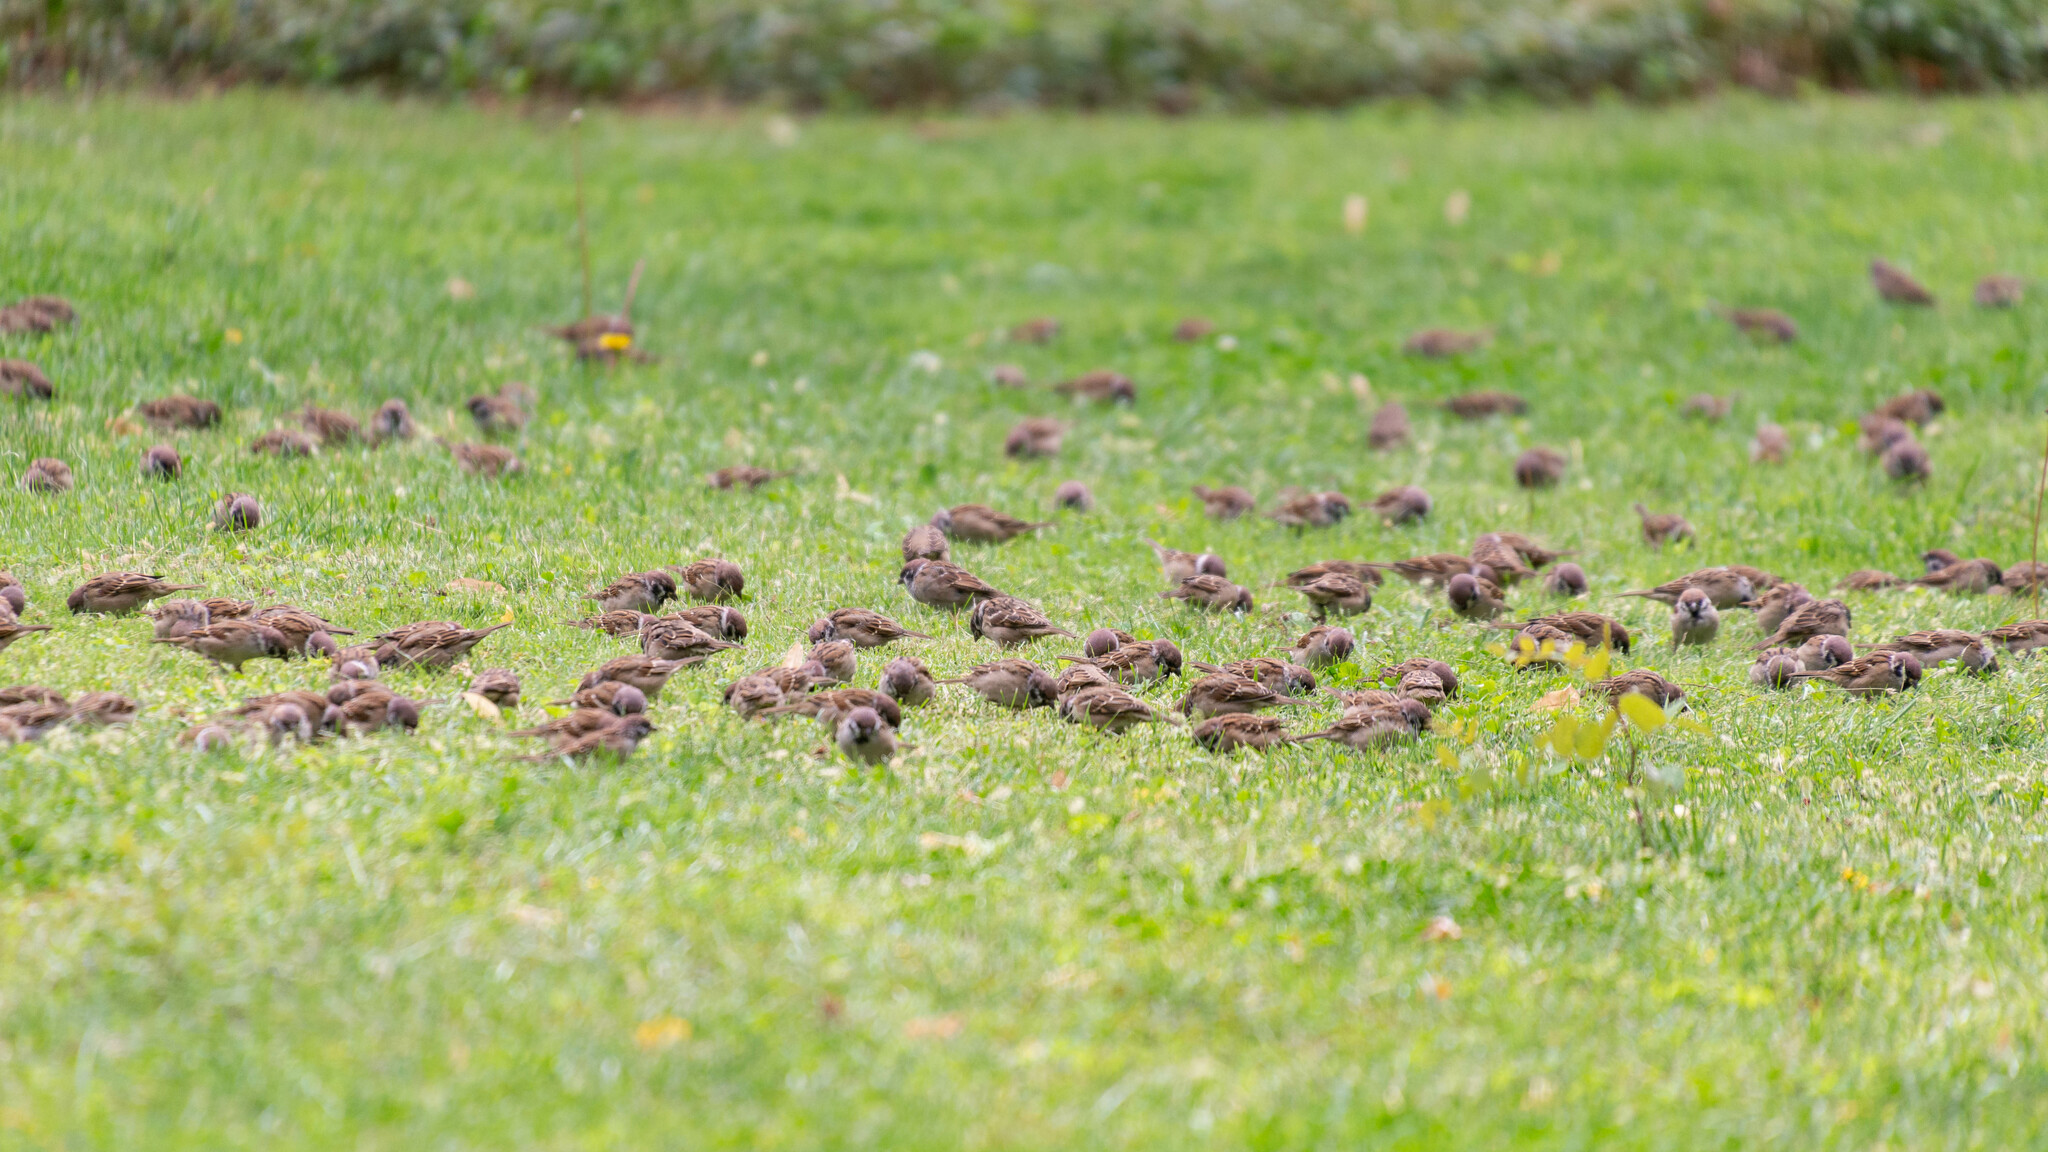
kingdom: Animalia
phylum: Chordata
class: Aves
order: Passeriformes
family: Passeridae
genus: Passer
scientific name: Passer montanus
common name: Eurasian tree sparrow
